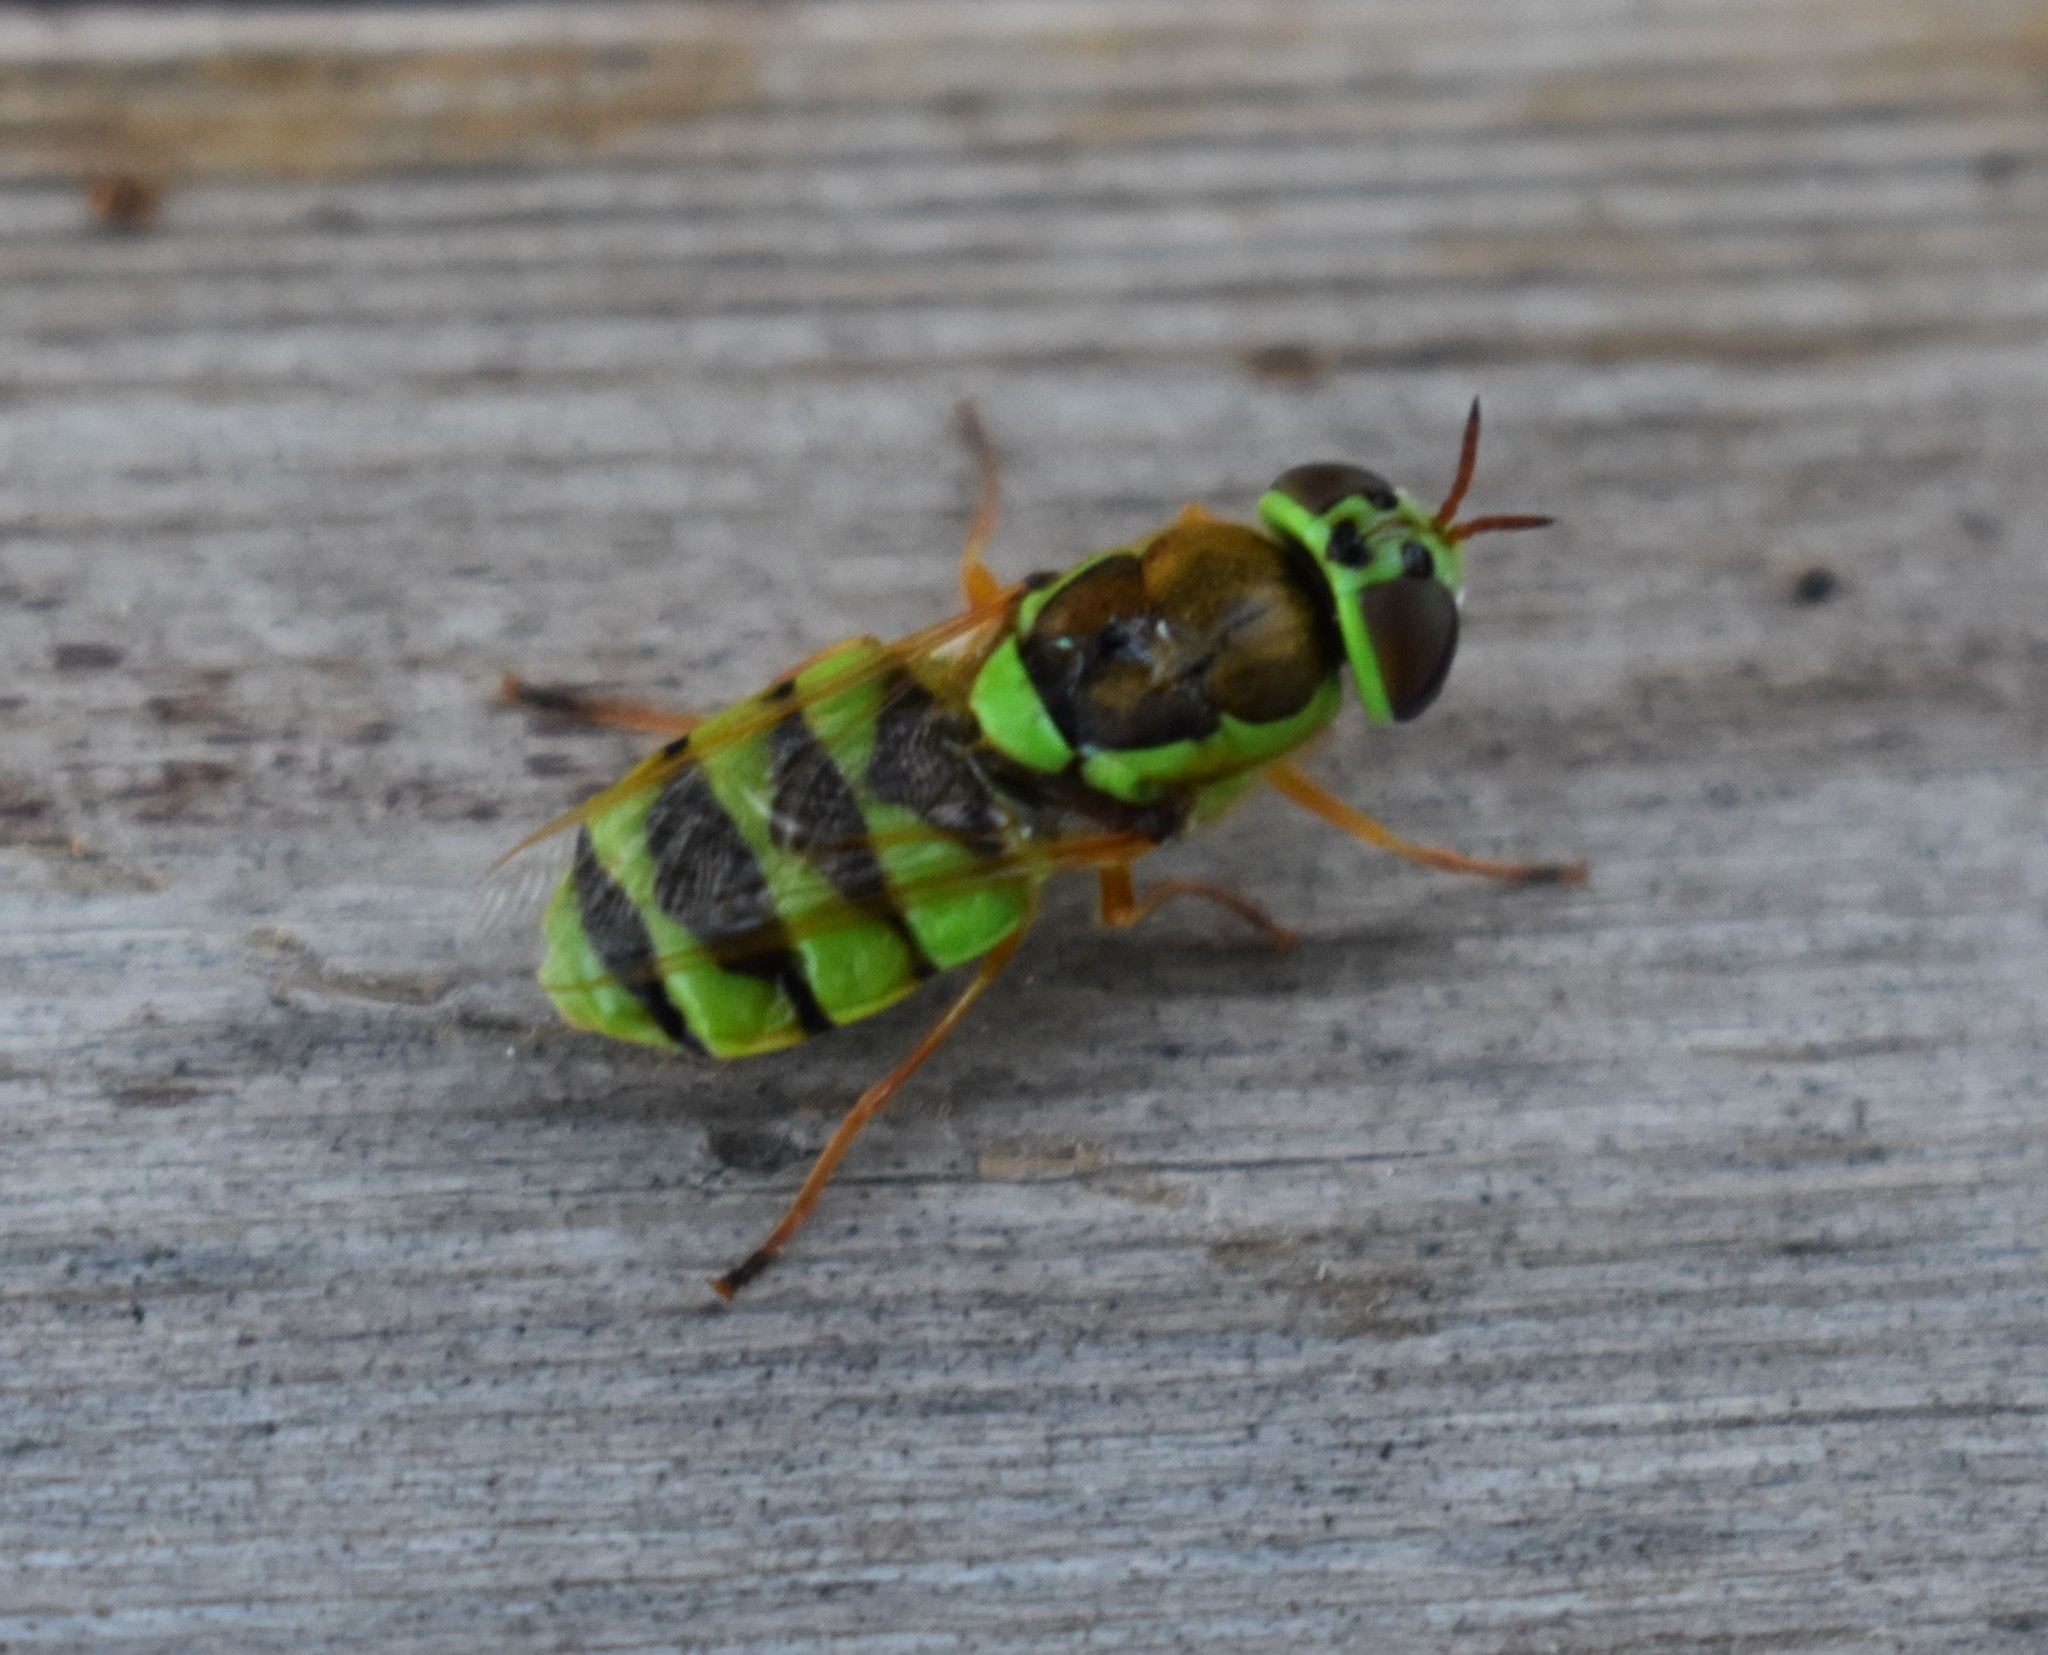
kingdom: Animalia
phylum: Arthropoda
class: Insecta
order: Diptera
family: Stratiomyidae
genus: Odontomyia
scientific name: Odontomyia cincta
